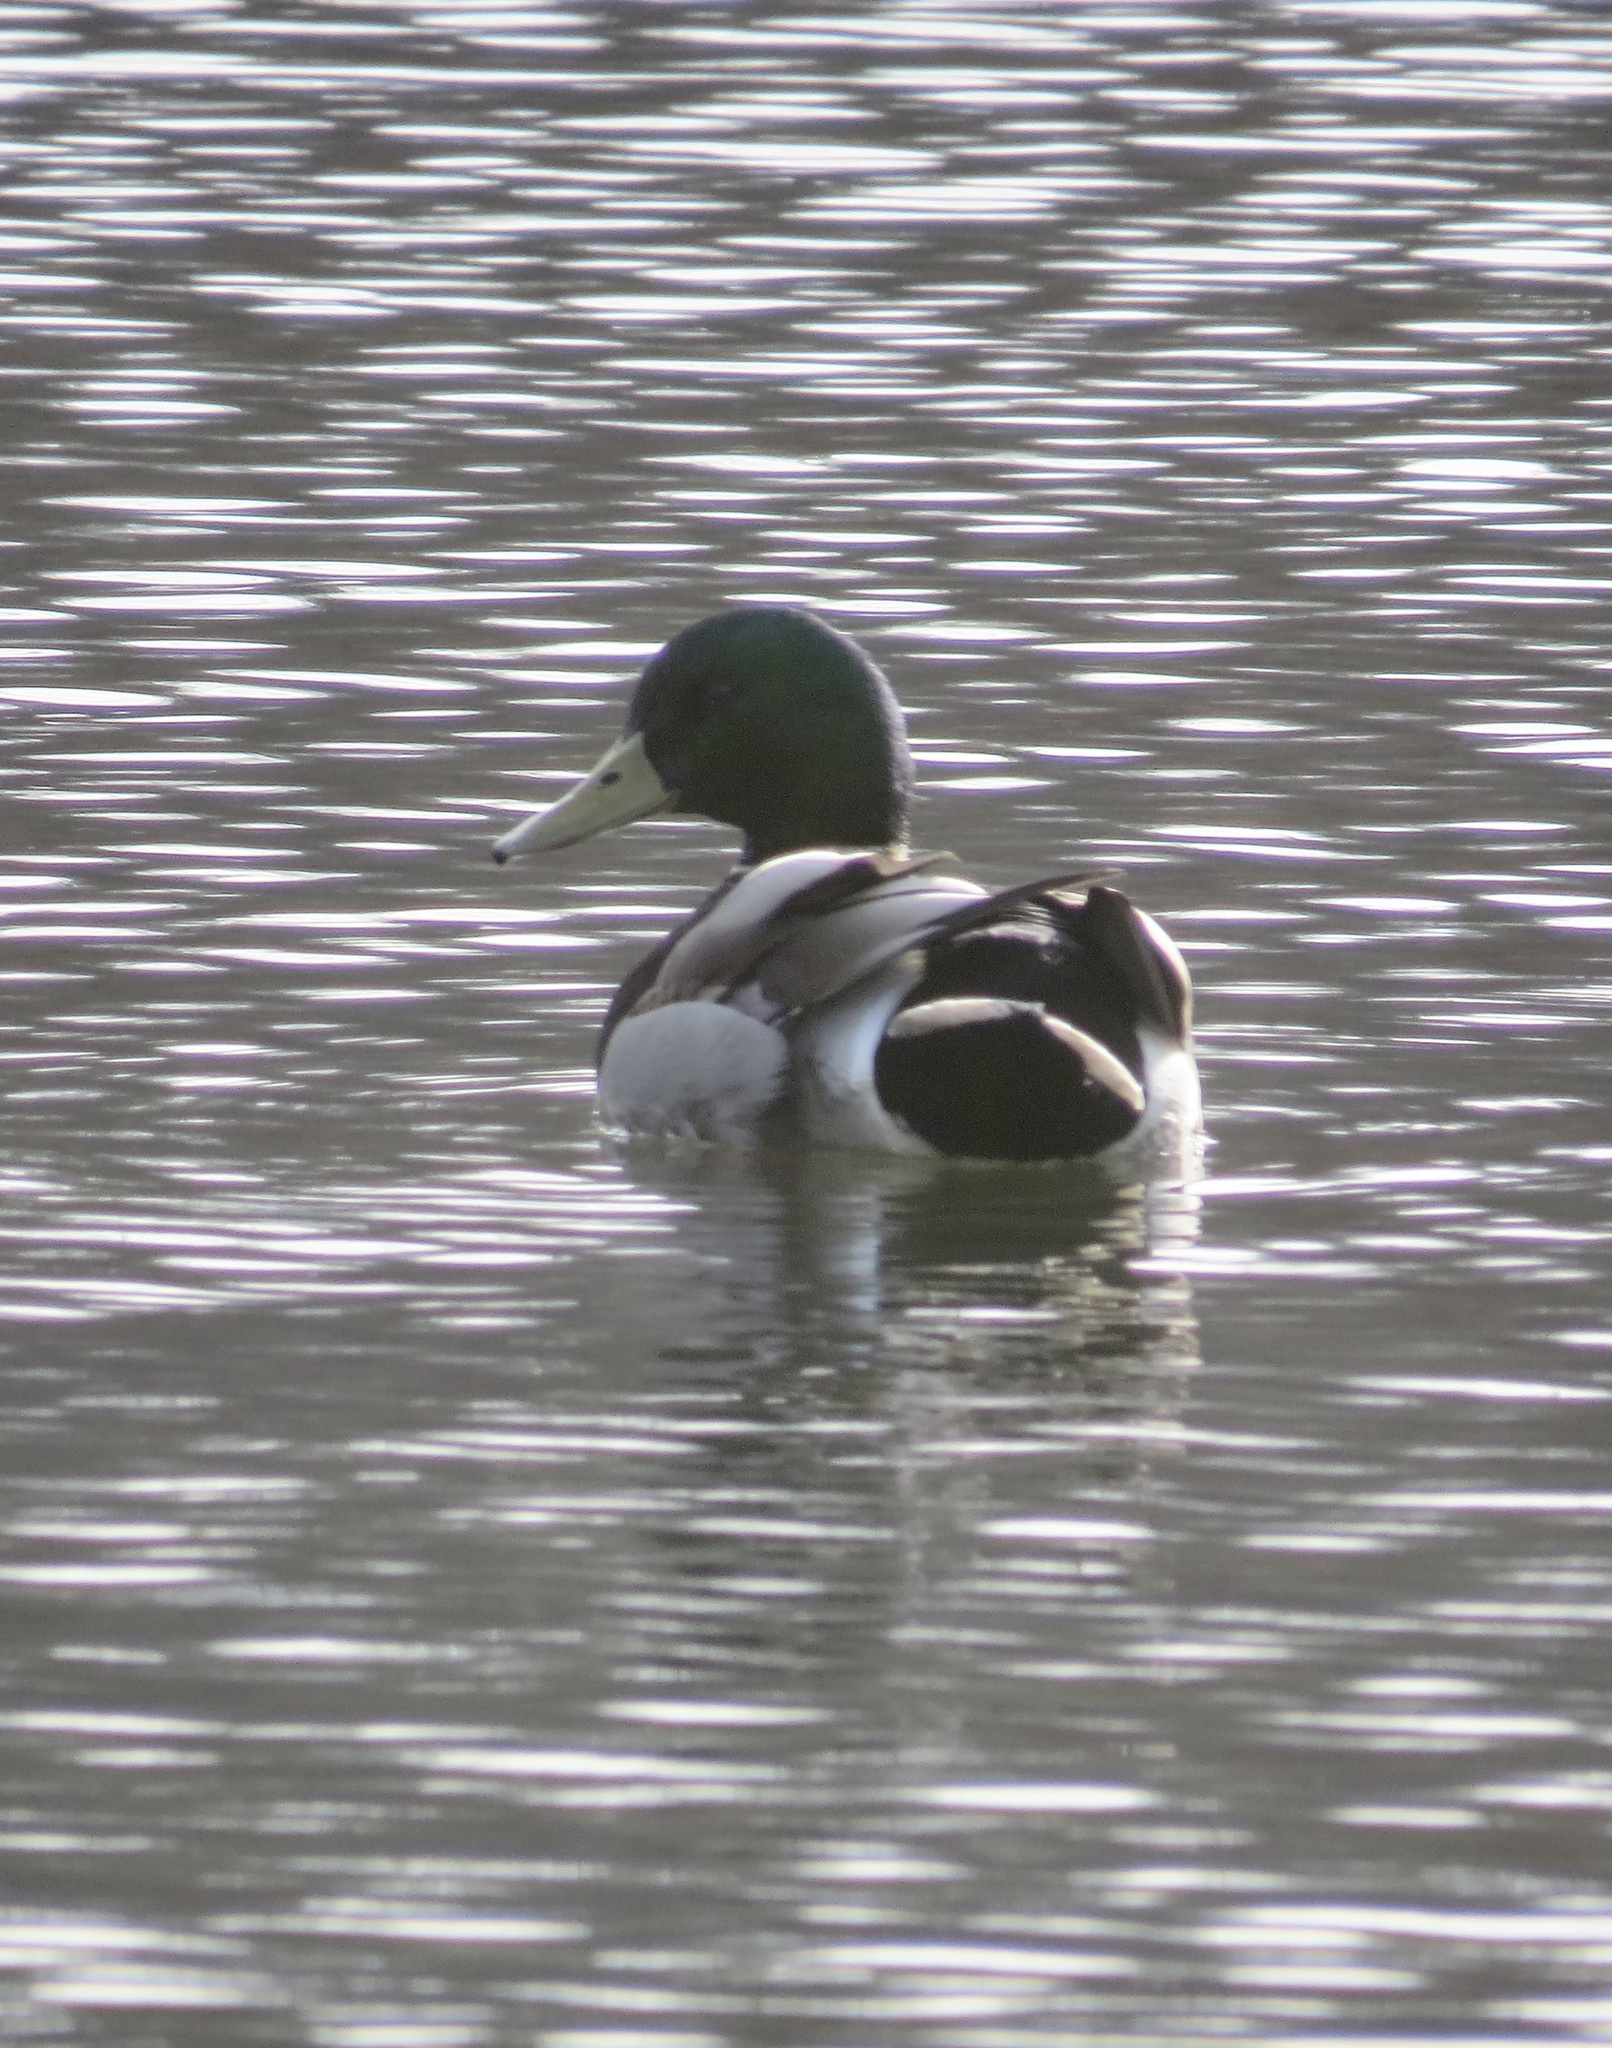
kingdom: Animalia
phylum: Chordata
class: Aves
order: Anseriformes
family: Anatidae
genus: Anas
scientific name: Anas platyrhynchos
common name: Mallard
